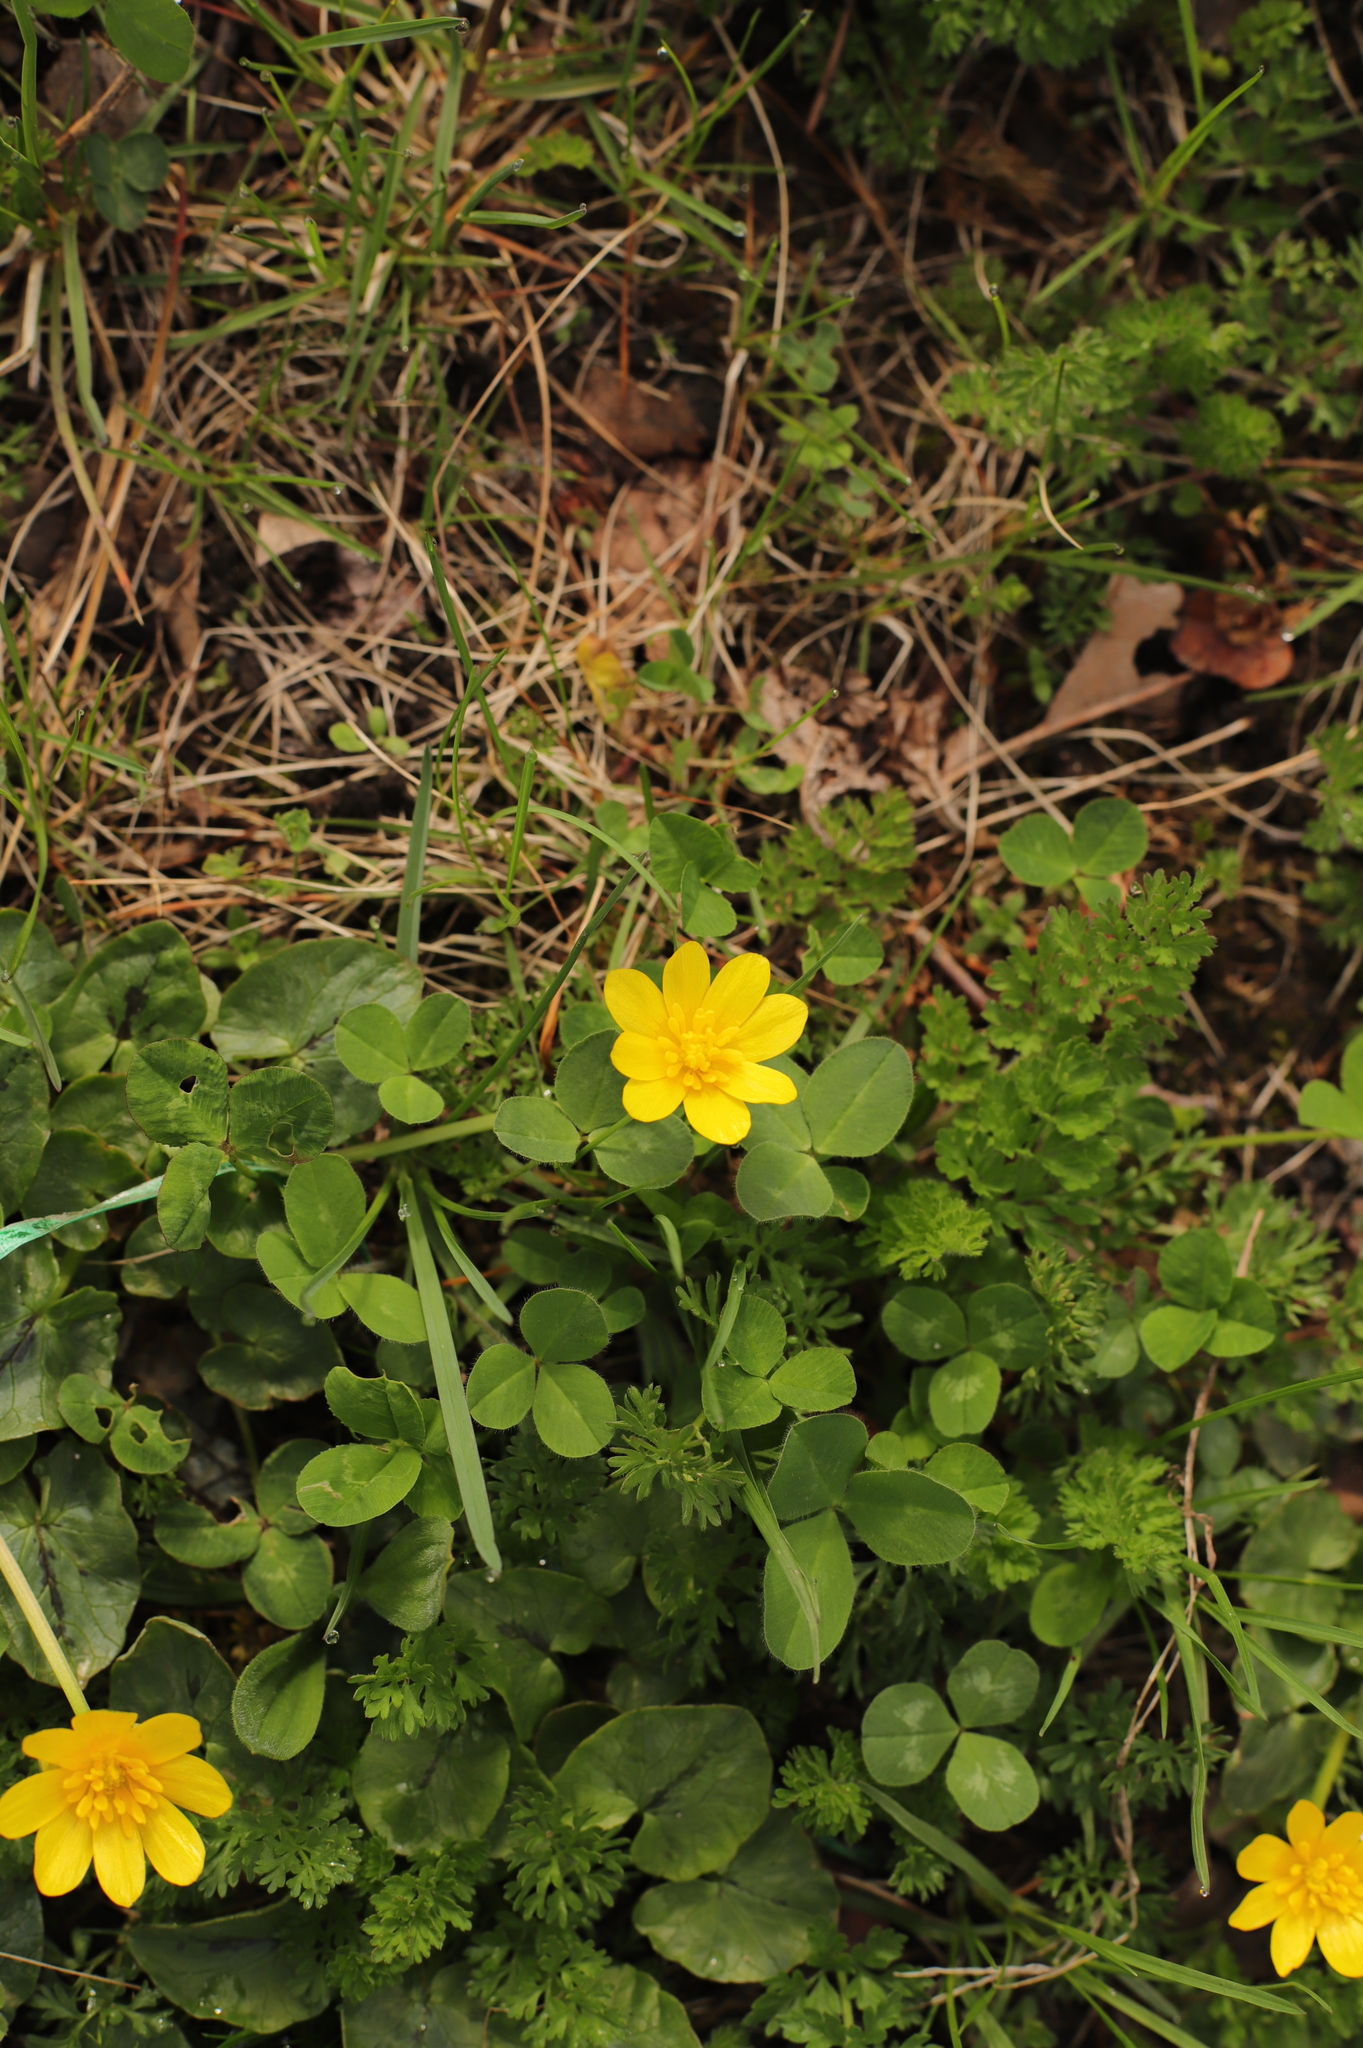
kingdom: Plantae
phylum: Tracheophyta
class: Magnoliopsida
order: Ranunculales
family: Ranunculaceae
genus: Ficaria
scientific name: Ficaria verna
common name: Lesser celandine
